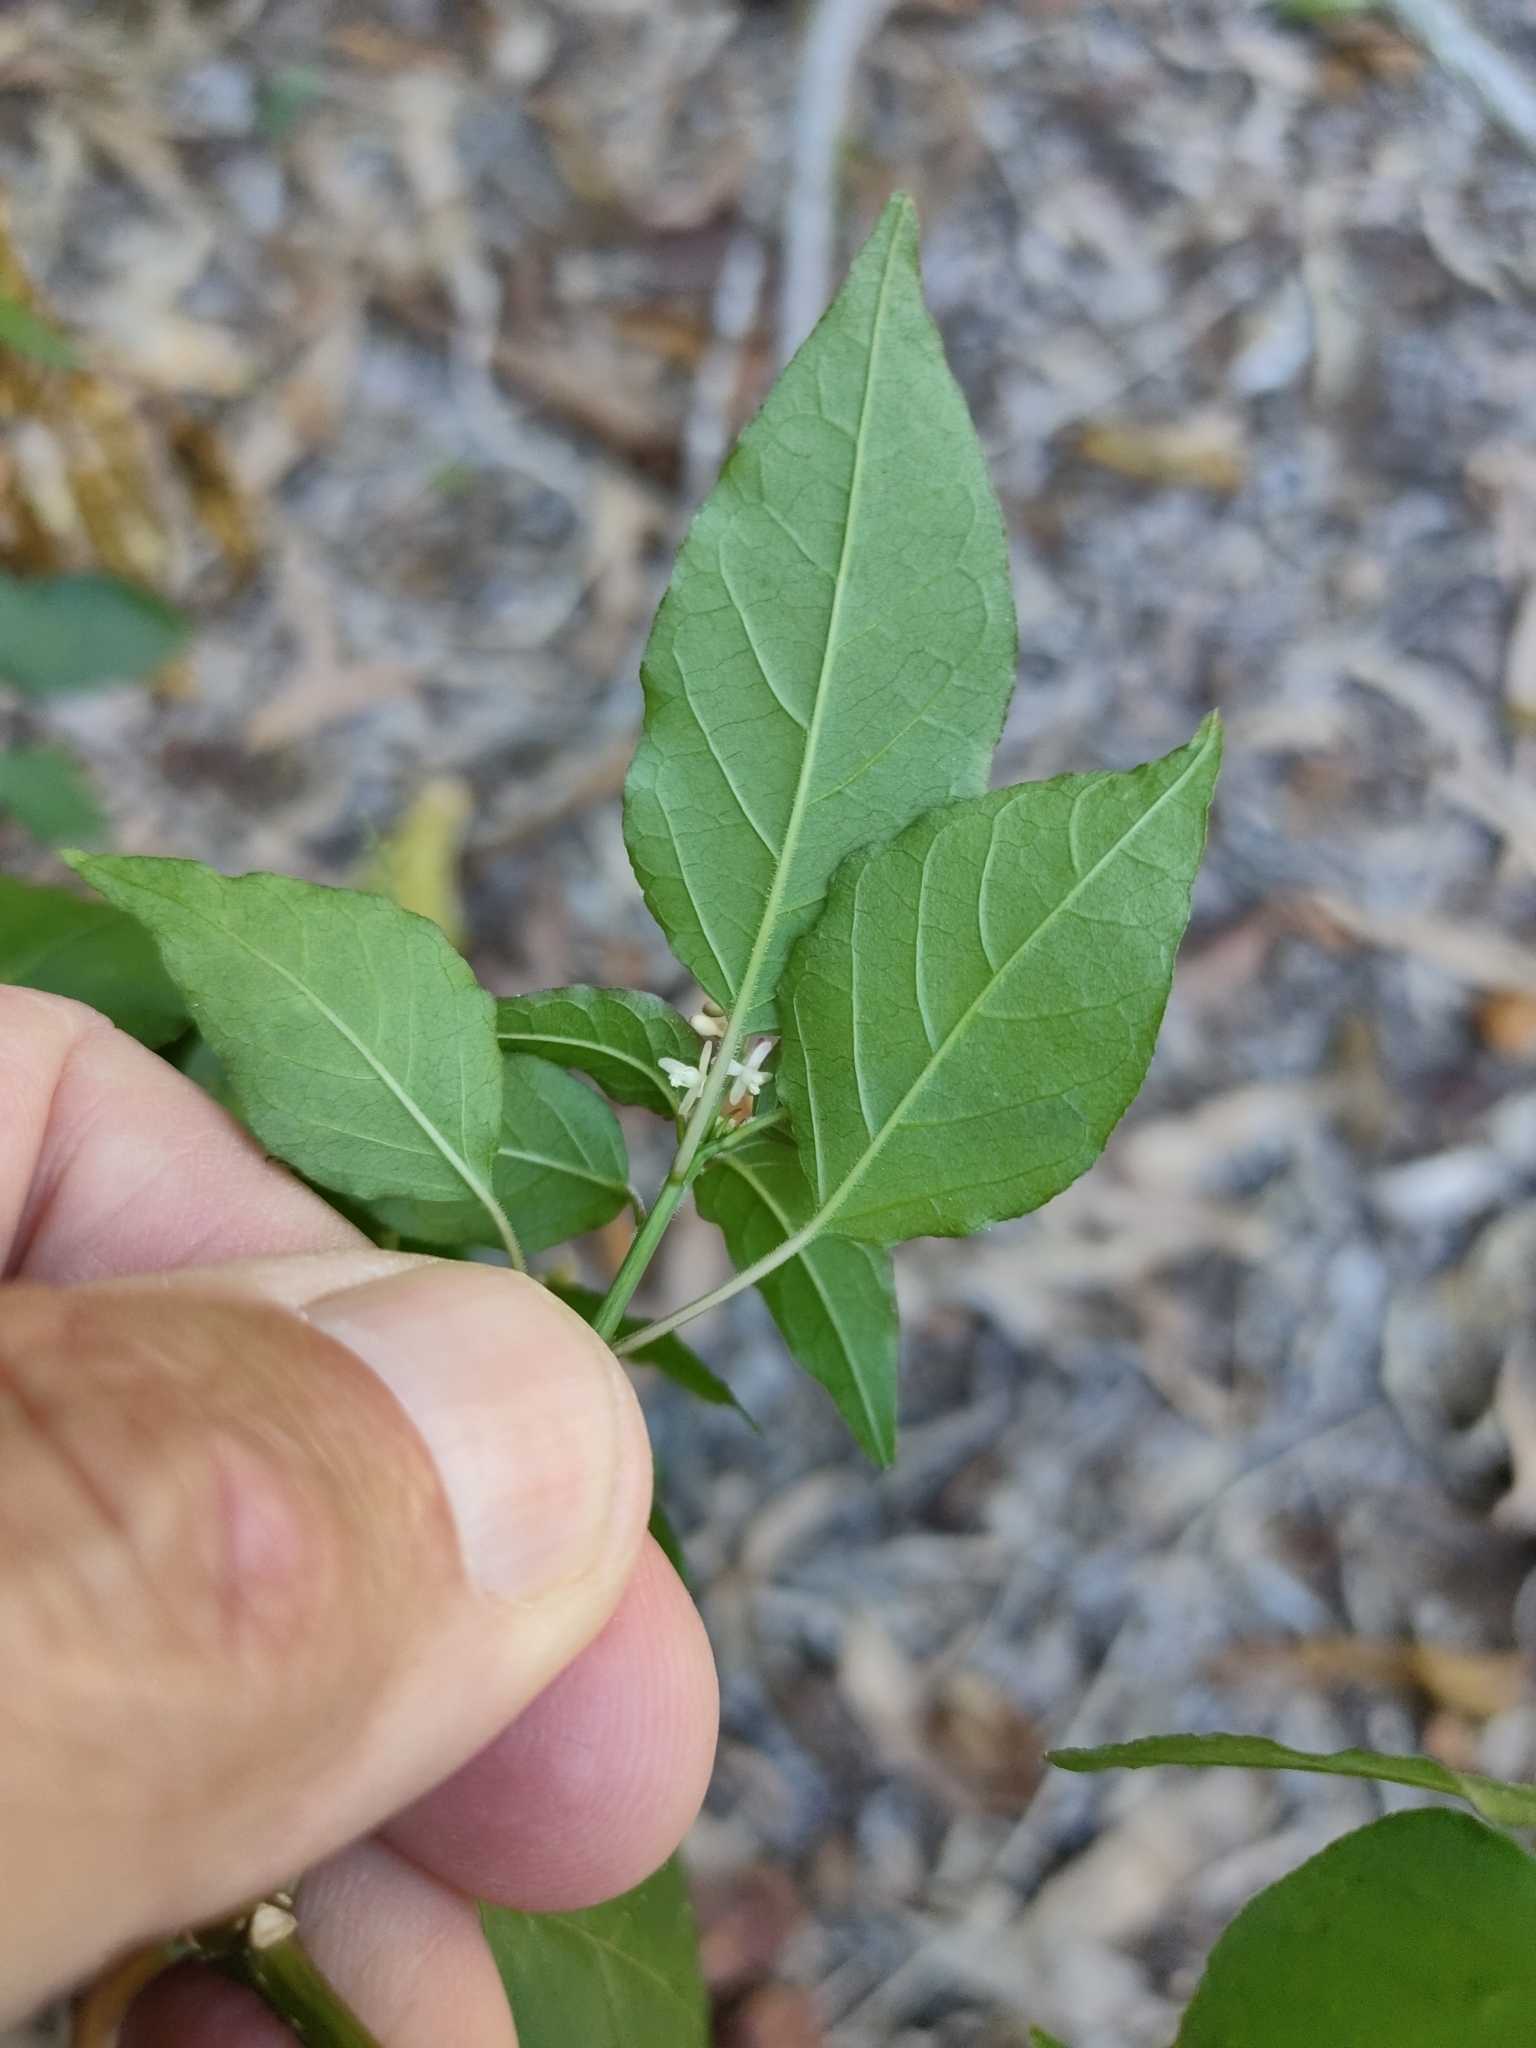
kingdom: Plantae
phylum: Tracheophyta
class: Magnoliopsida
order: Caryophyllales
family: Phytolaccaceae
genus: Rivina
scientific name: Rivina humilis
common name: Rougeplant
